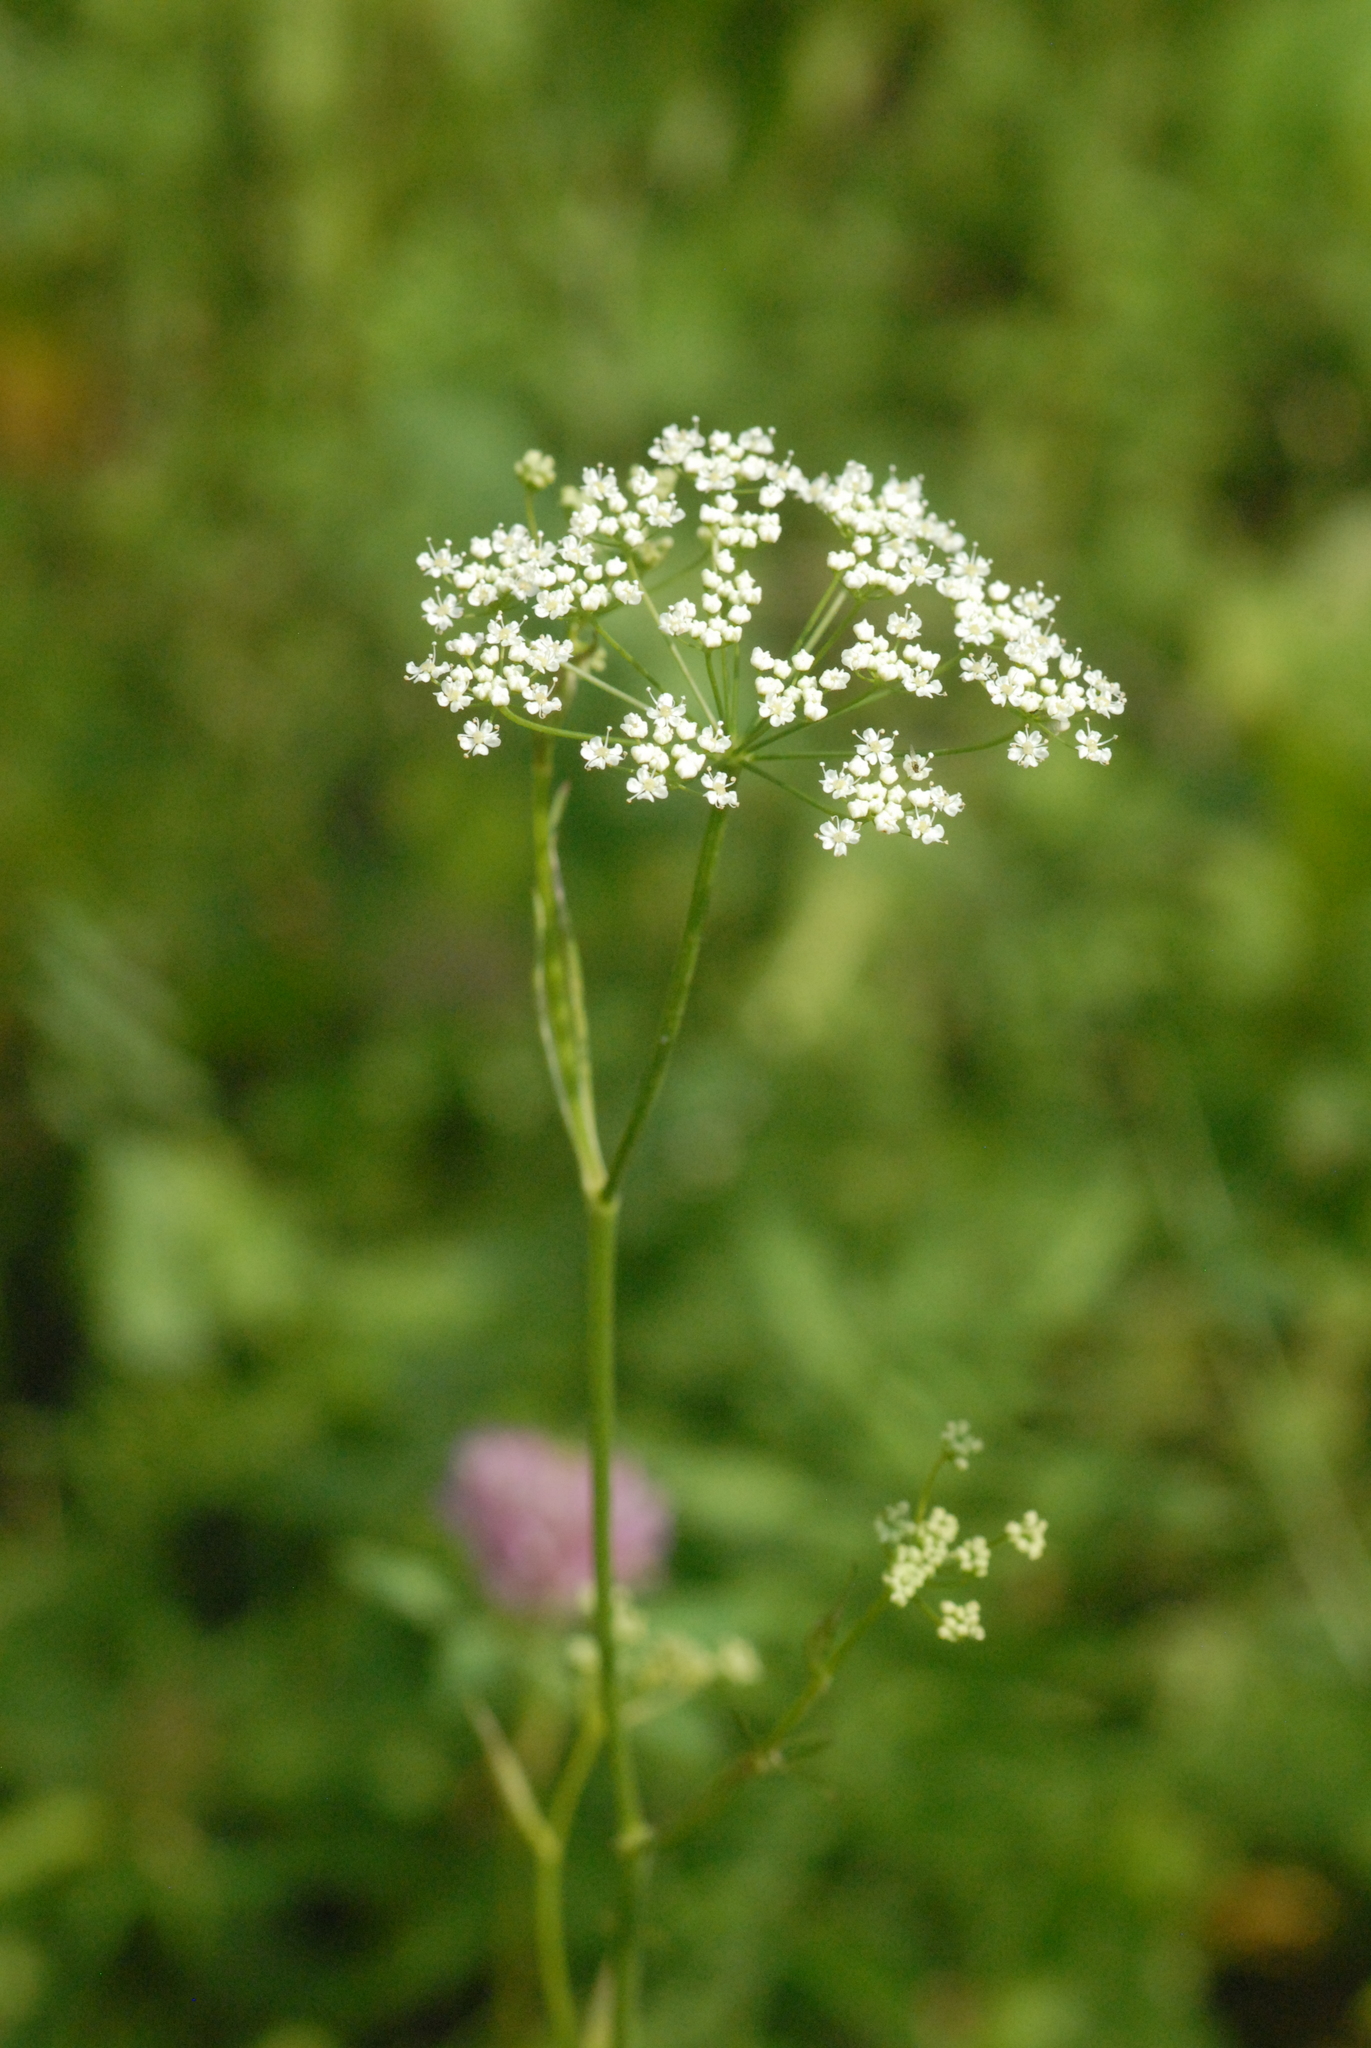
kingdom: Plantae
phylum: Tracheophyta
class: Magnoliopsida
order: Apiales
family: Apiaceae
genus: Pimpinella
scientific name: Pimpinella saxifraga
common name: Burnet-saxifrage
